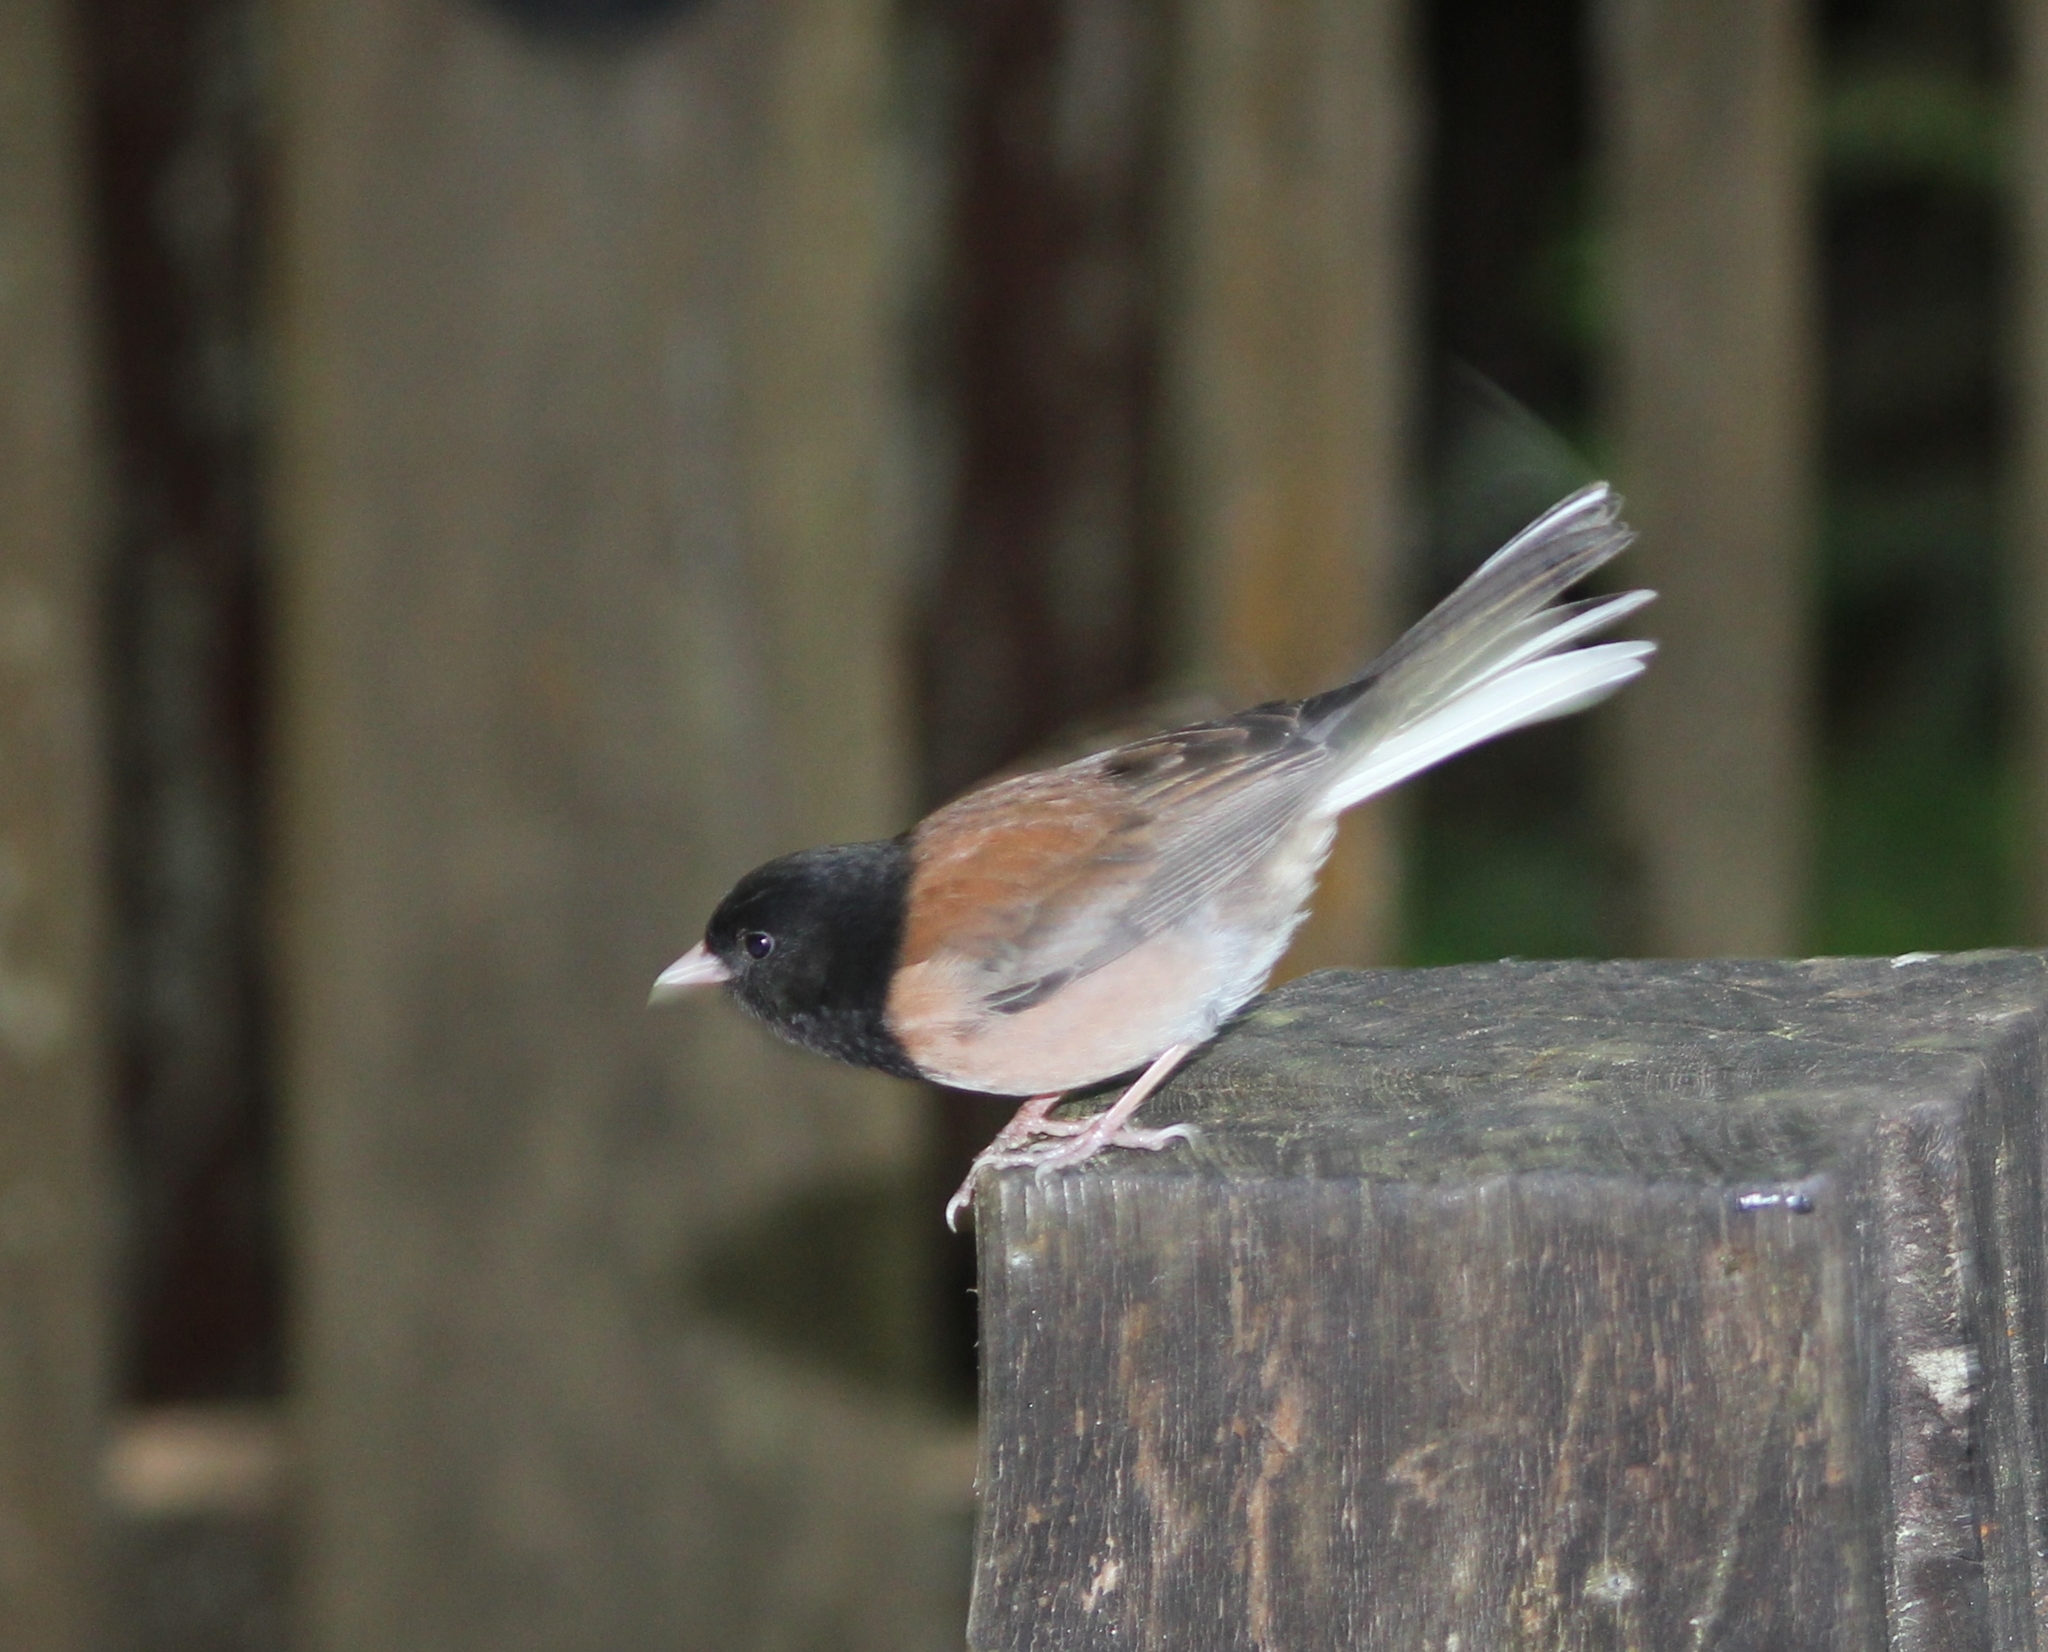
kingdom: Animalia
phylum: Chordata
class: Aves
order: Passeriformes
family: Passerellidae
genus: Junco
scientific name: Junco hyemalis
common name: Dark-eyed junco
